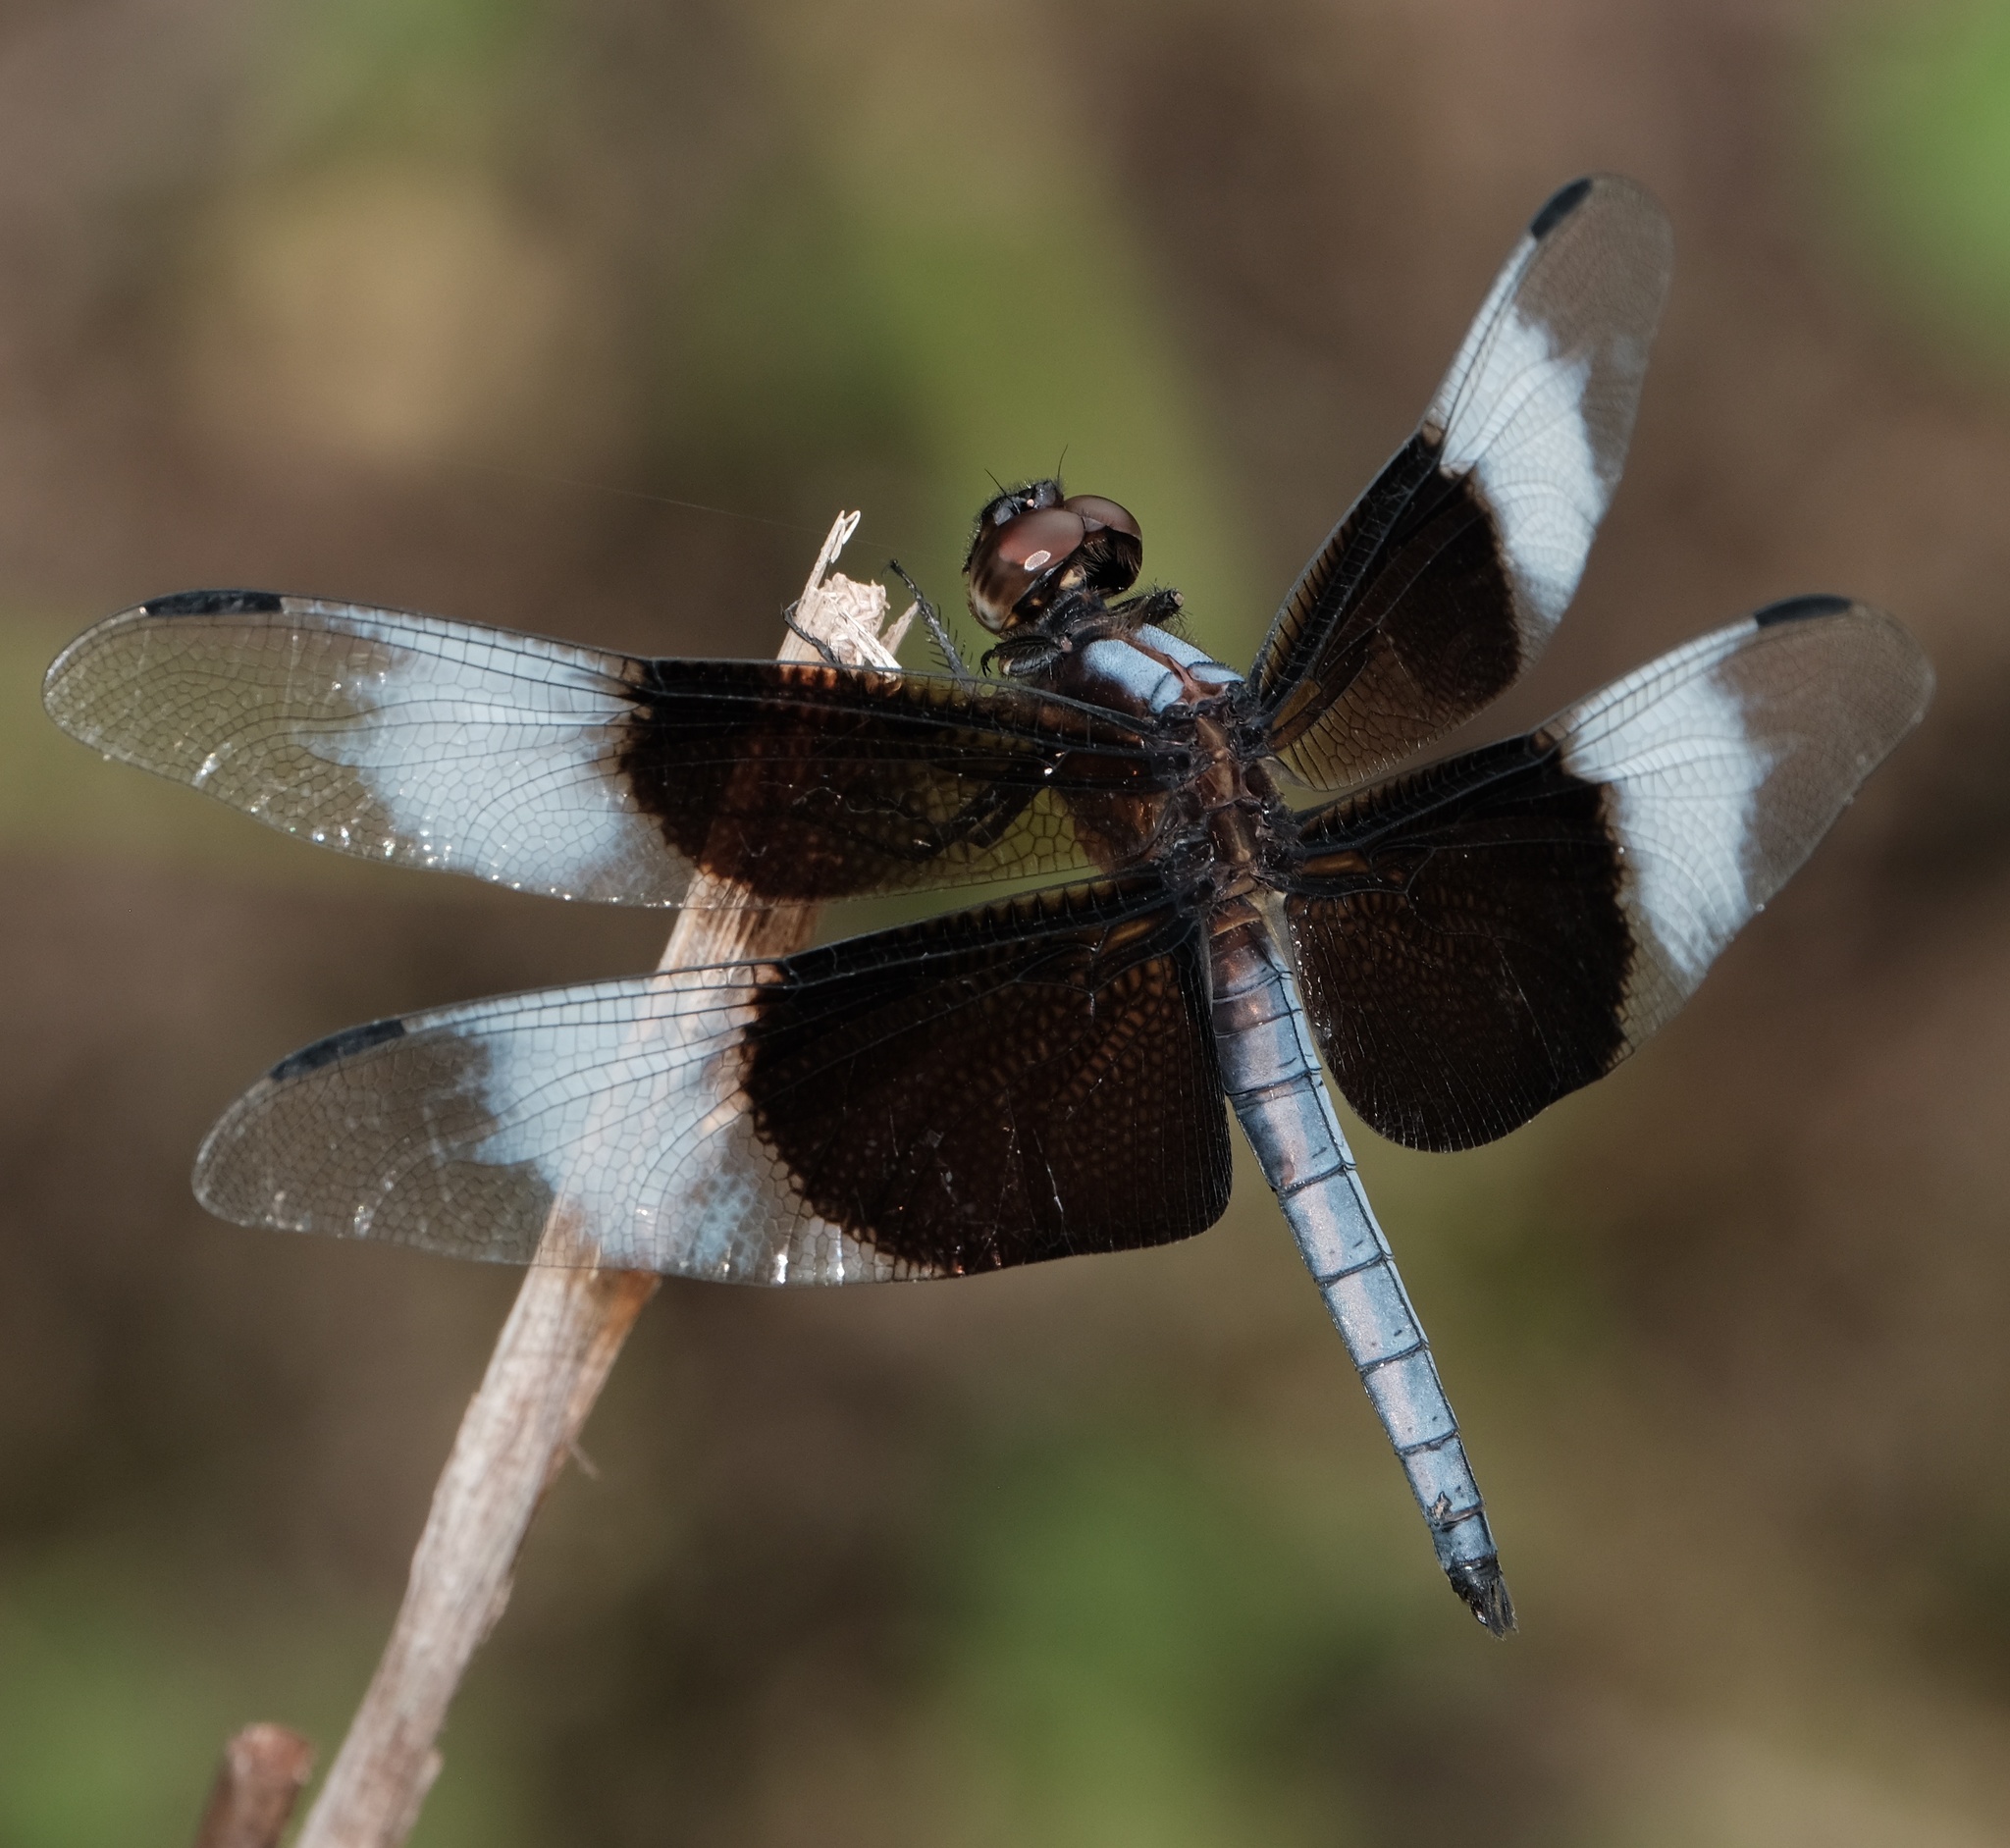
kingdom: Animalia
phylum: Arthropoda
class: Insecta
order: Odonata
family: Libellulidae
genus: Libellula
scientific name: Libellula luctuosa
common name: Widow skimmer
